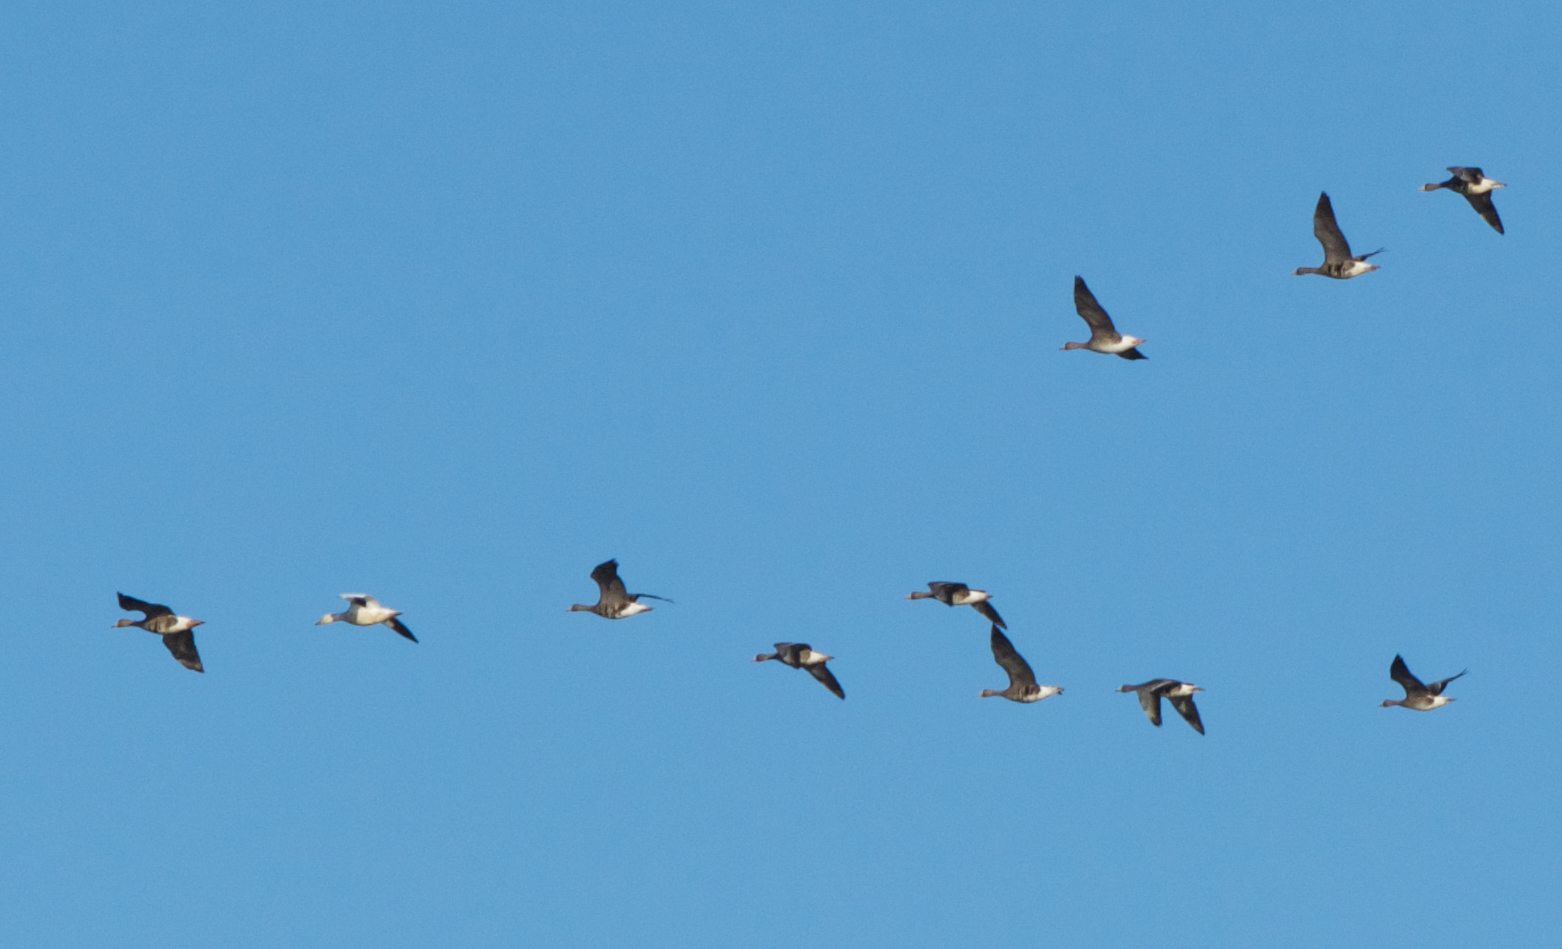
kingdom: Animalia
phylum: Chordata
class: Aves
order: Anseriformes
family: Anatidae
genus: Anser
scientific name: Anser albifrons
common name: Greater white-fronted goose
